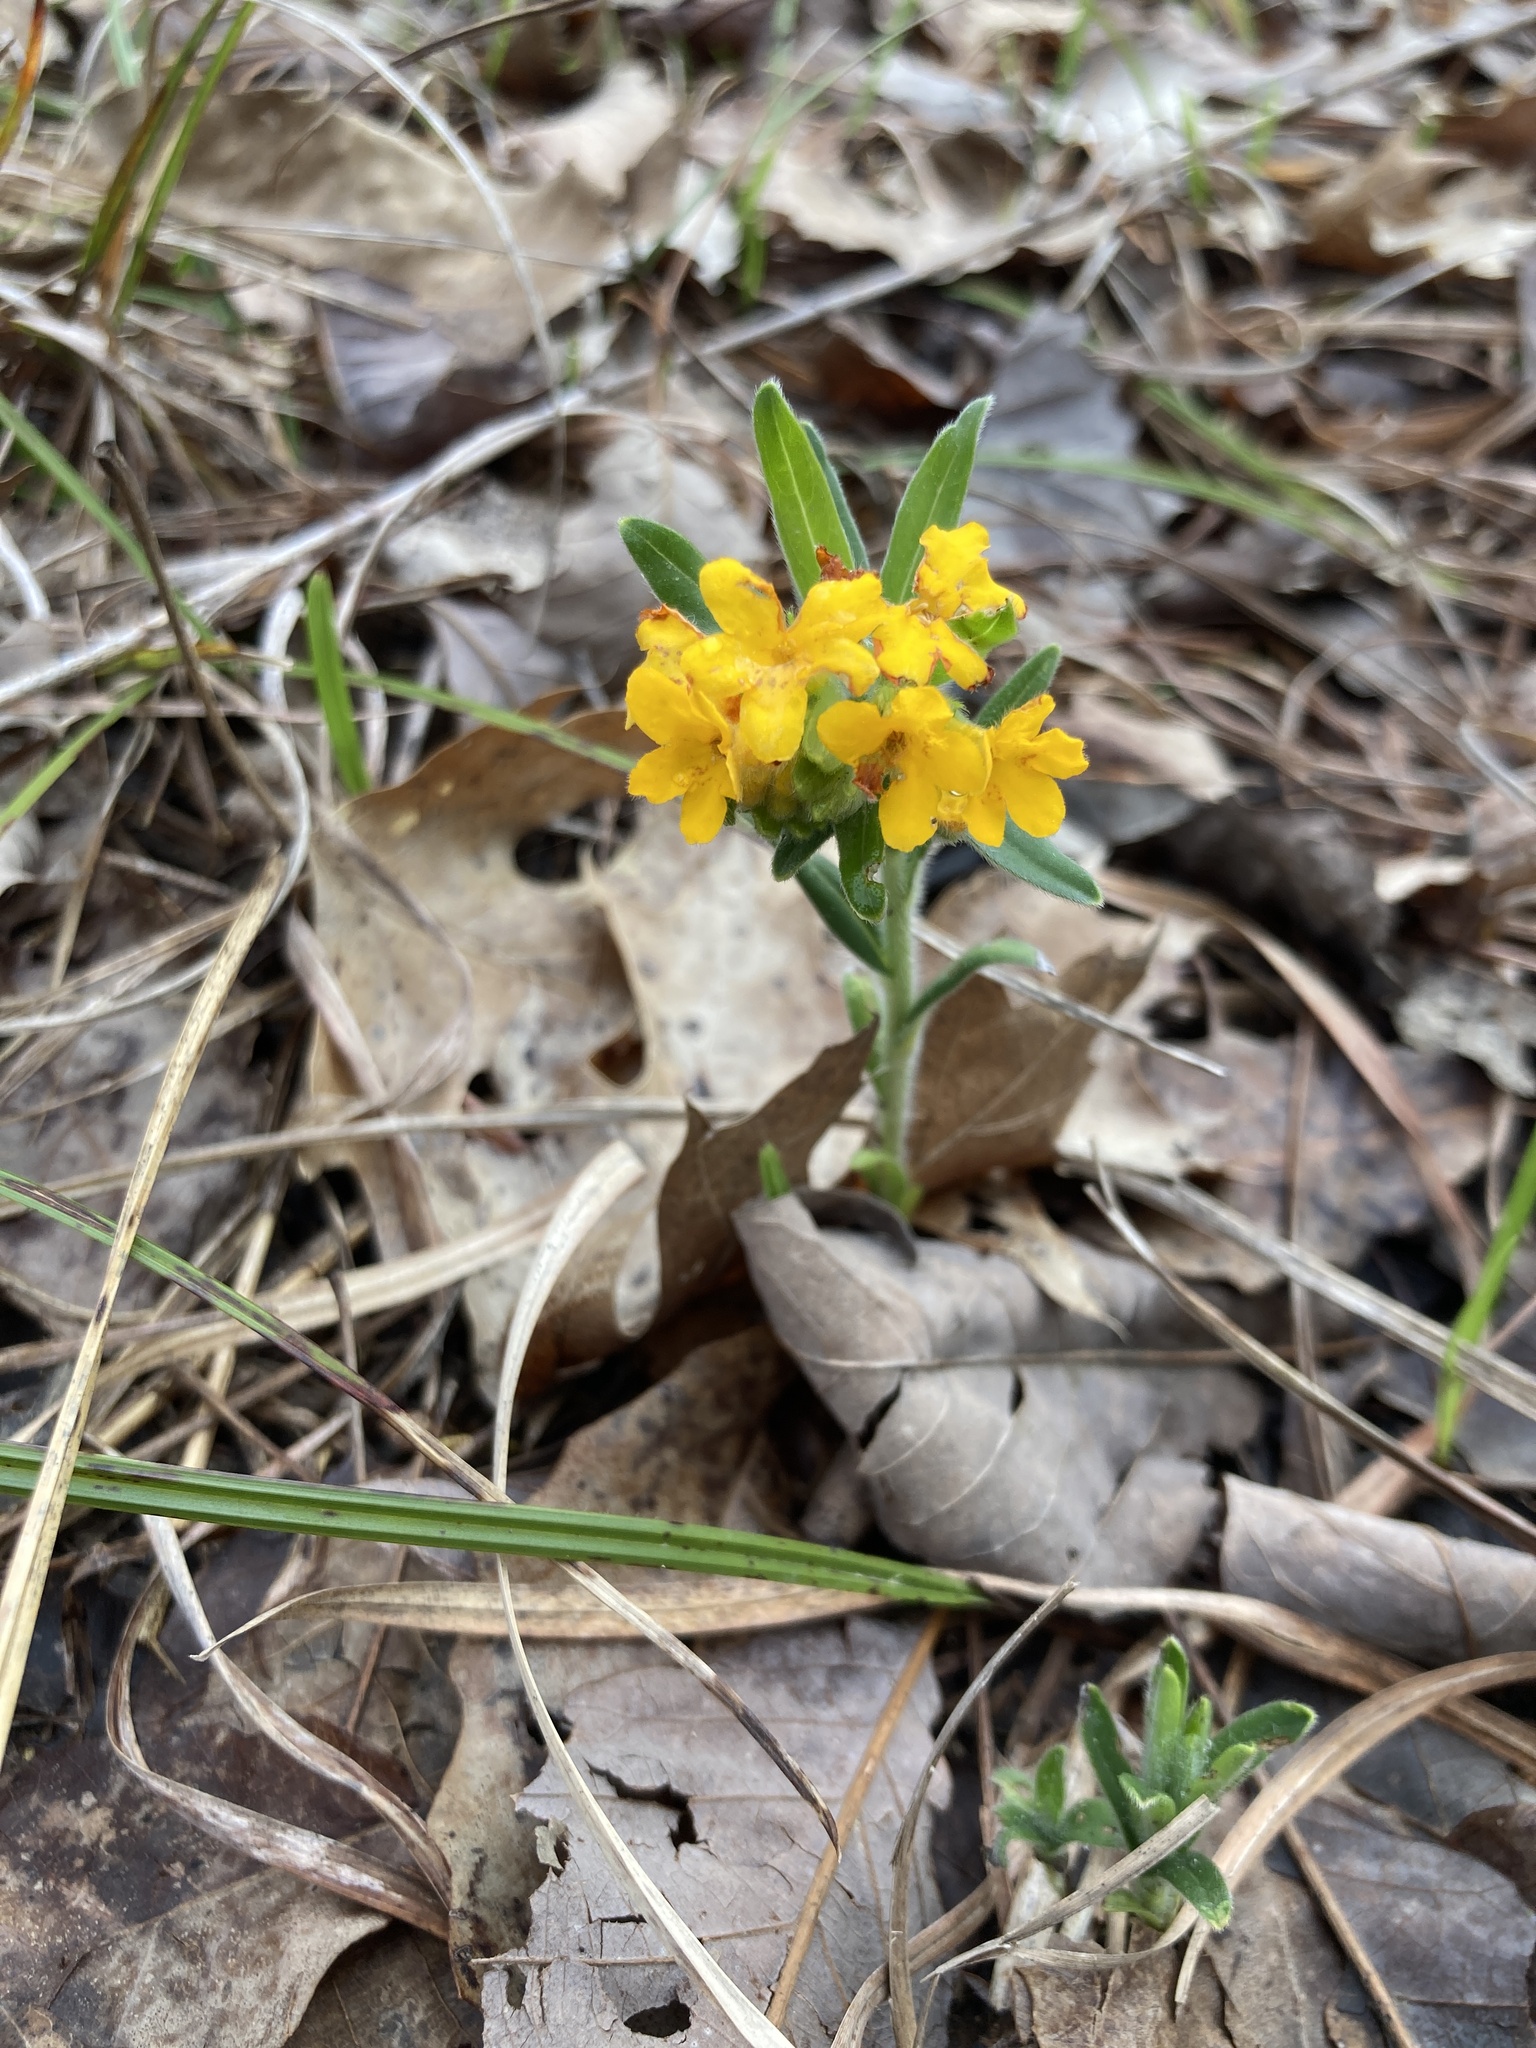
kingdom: Plantae
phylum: Tracheophyta
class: Magnoliopsida
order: Boraginales
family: Boraginaceae
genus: Lithospermum
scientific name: Lithospermum canescens
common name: Hoary puccoon
